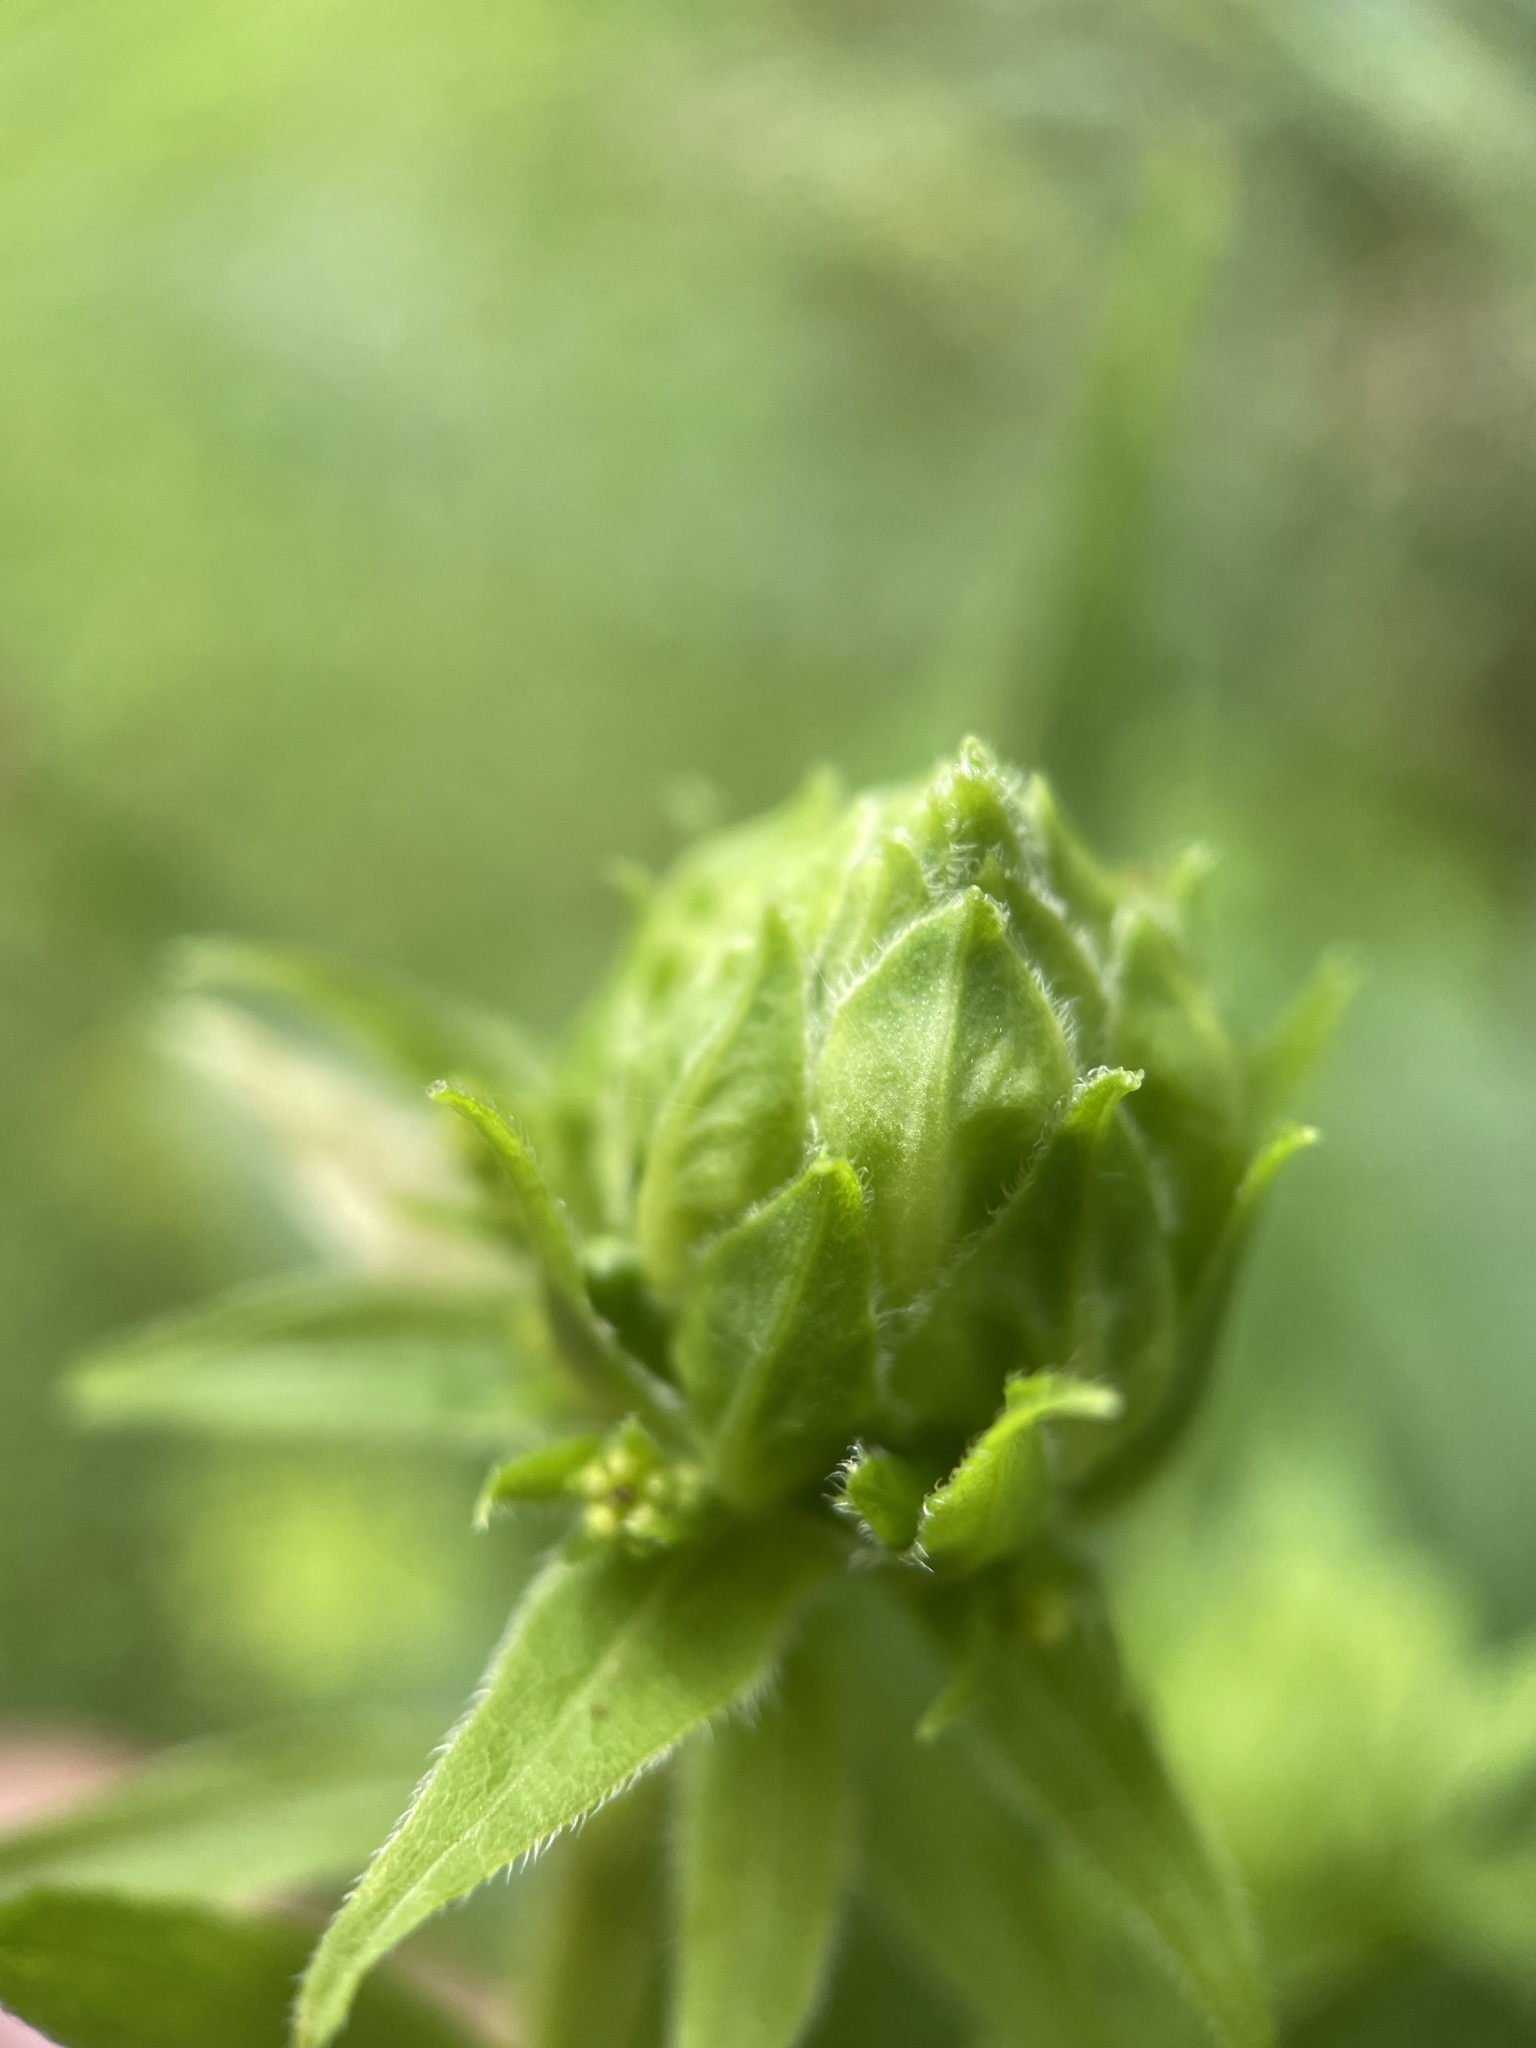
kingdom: Animalia
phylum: Arthropoda
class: Insecta
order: Diptera
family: Tephritidae
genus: Procecidochares
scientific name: Procecidochares atra
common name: Goldenrod brussels sprout gall fly
